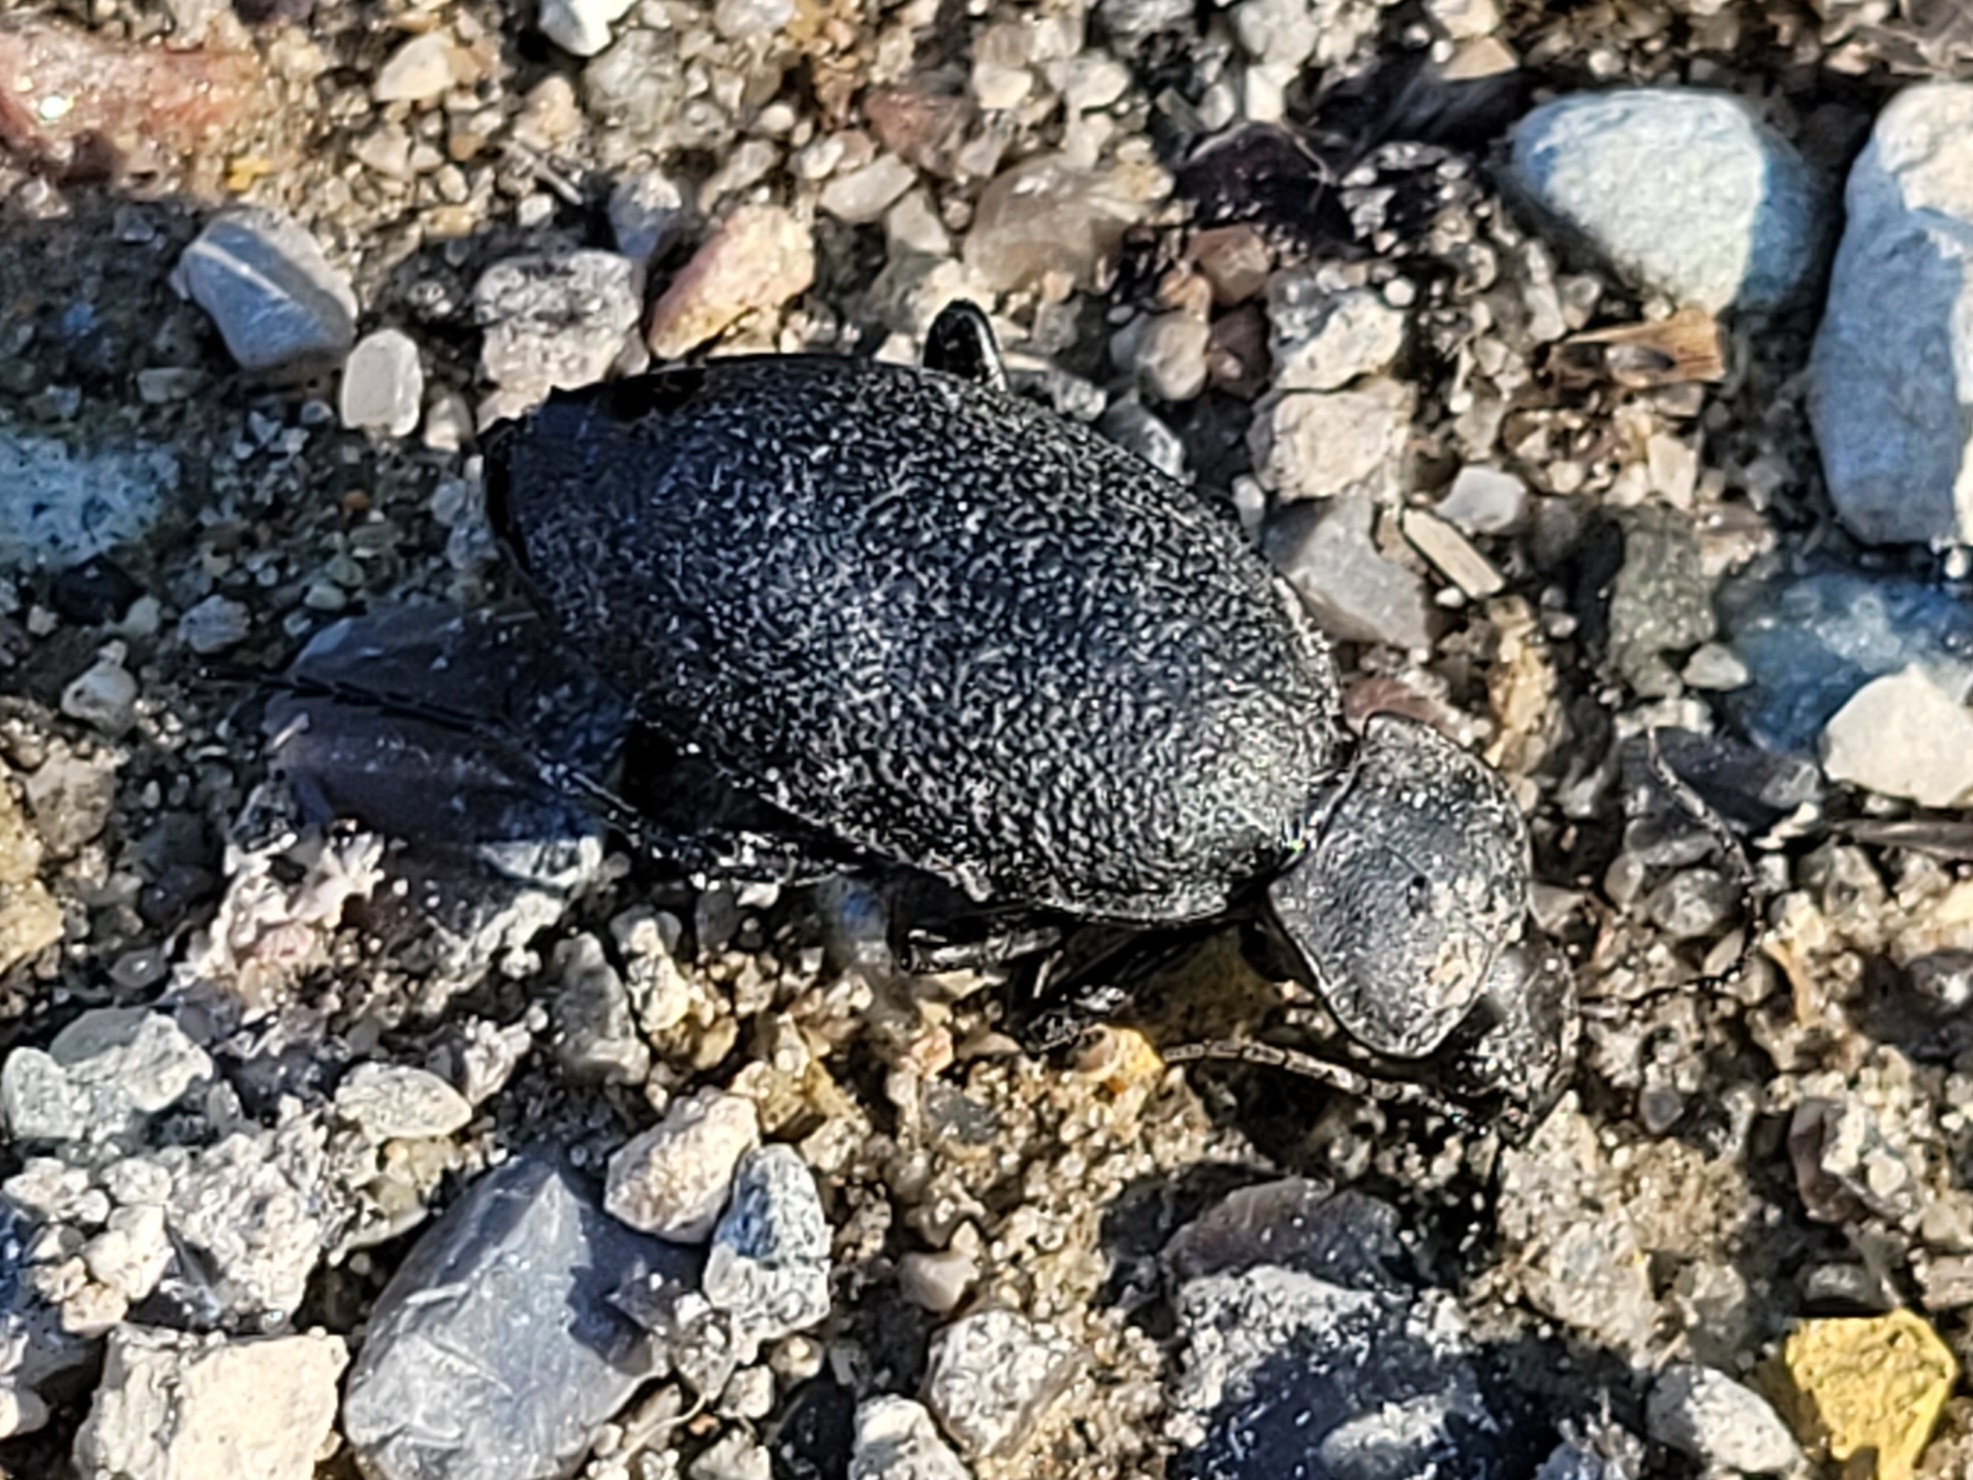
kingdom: Animalia
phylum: Arthropoda
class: Insecta
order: Coleoptera
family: Carabidae
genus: Carabus
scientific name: Carabus coriaceus
